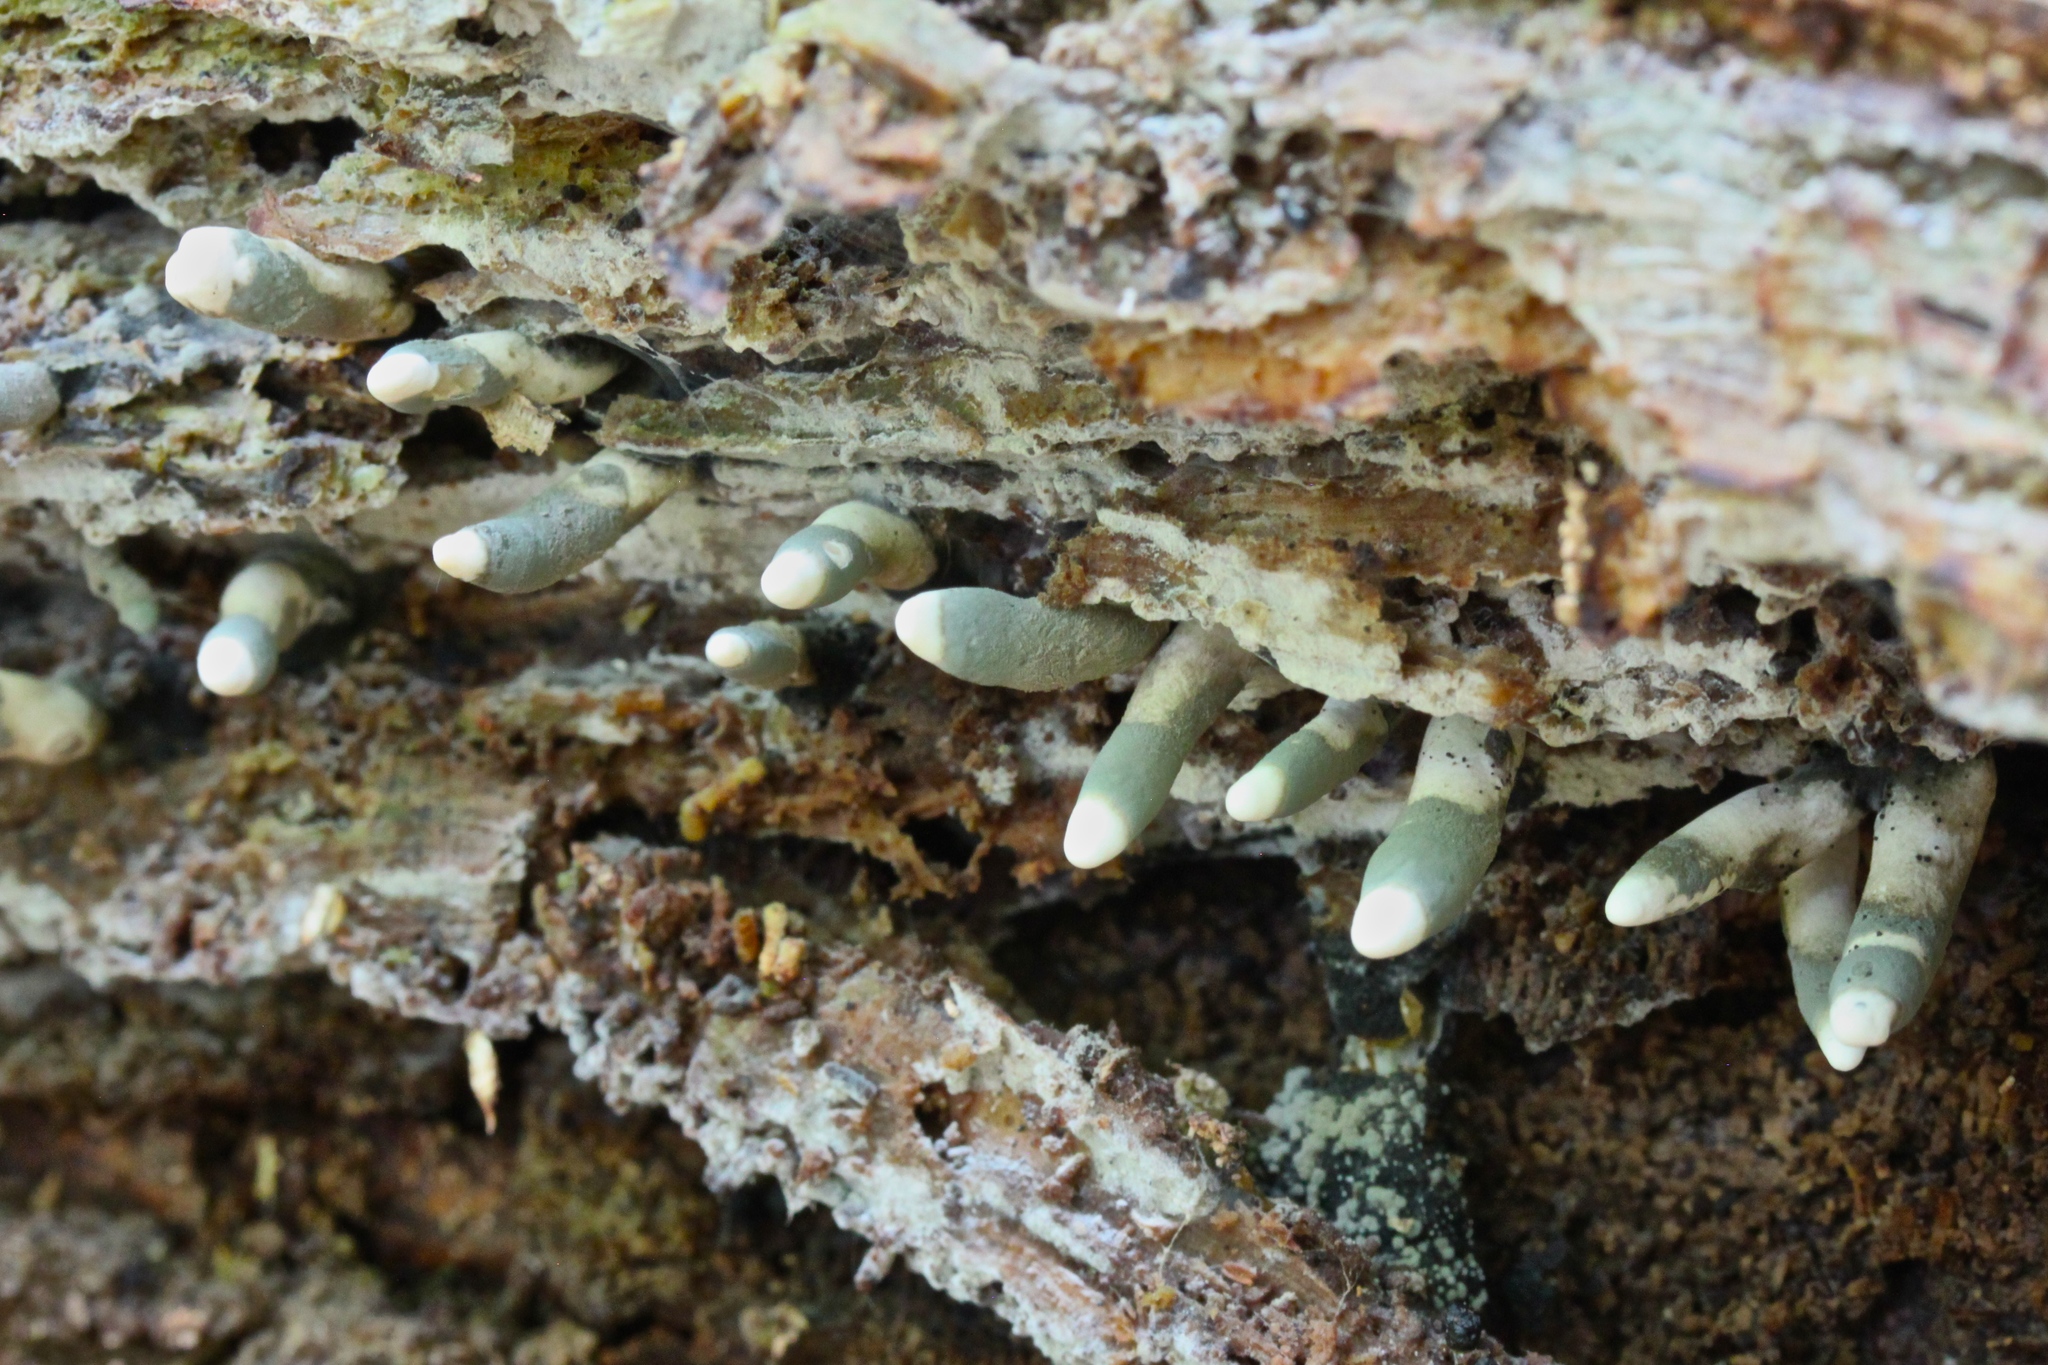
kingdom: Fungi
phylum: Ascomycota
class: Sordariomycetes
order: Xylariales
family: Xylariaceae
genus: Xylaria
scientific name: Xylaria polymorpha
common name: Dead man's fingers
